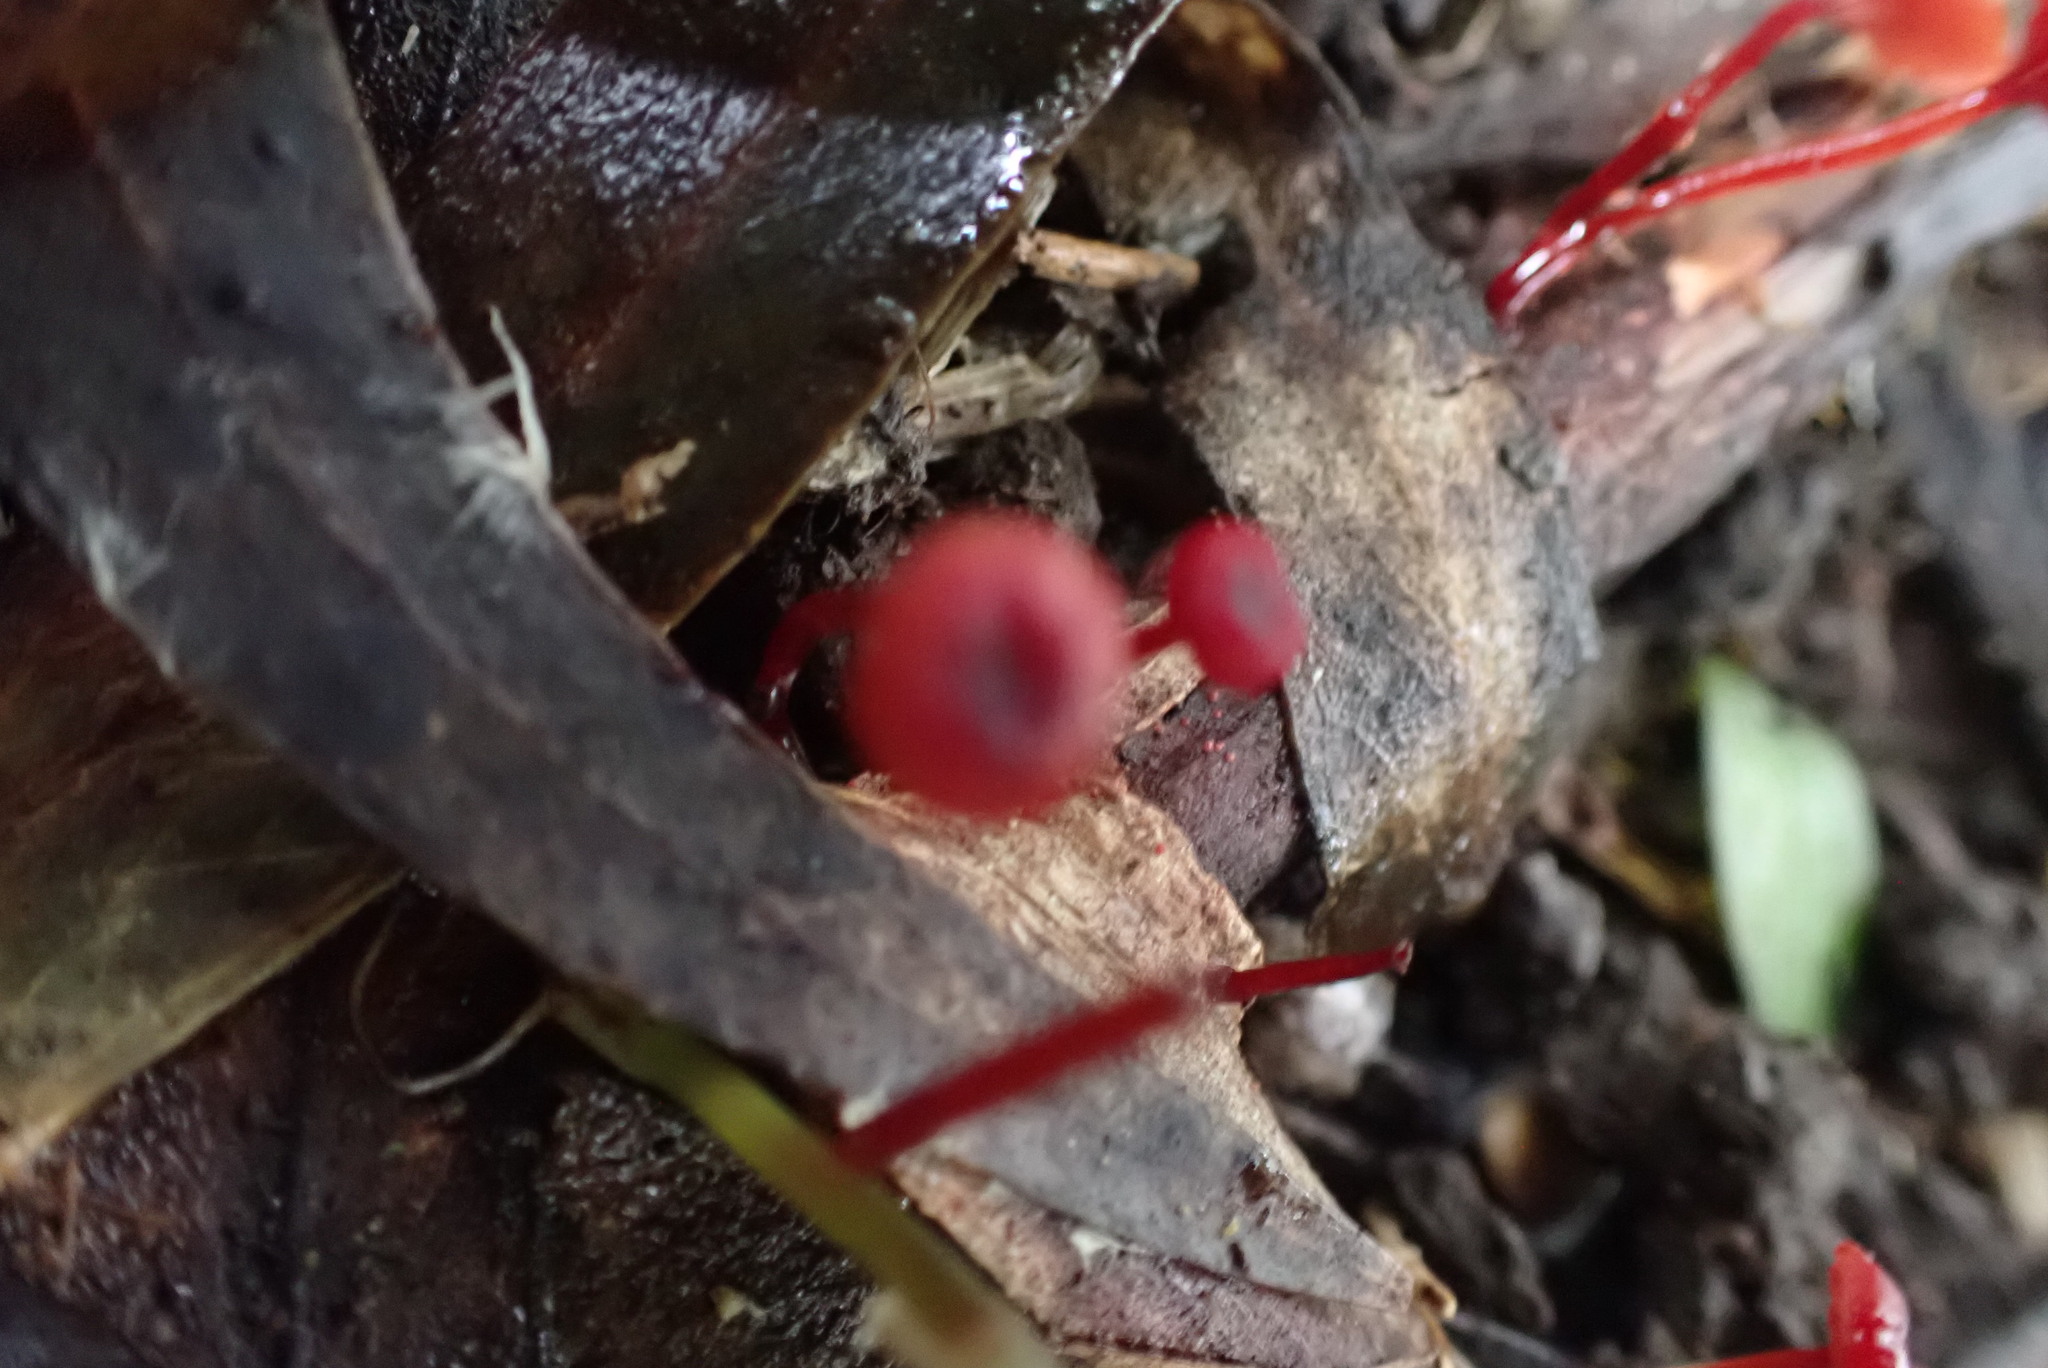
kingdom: Fungi
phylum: Basidiomycota
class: Agaricomycetes
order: Agaricales
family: Mycenaceae
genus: Cruentomycena
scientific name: Cruentomycena viscidocruenta
